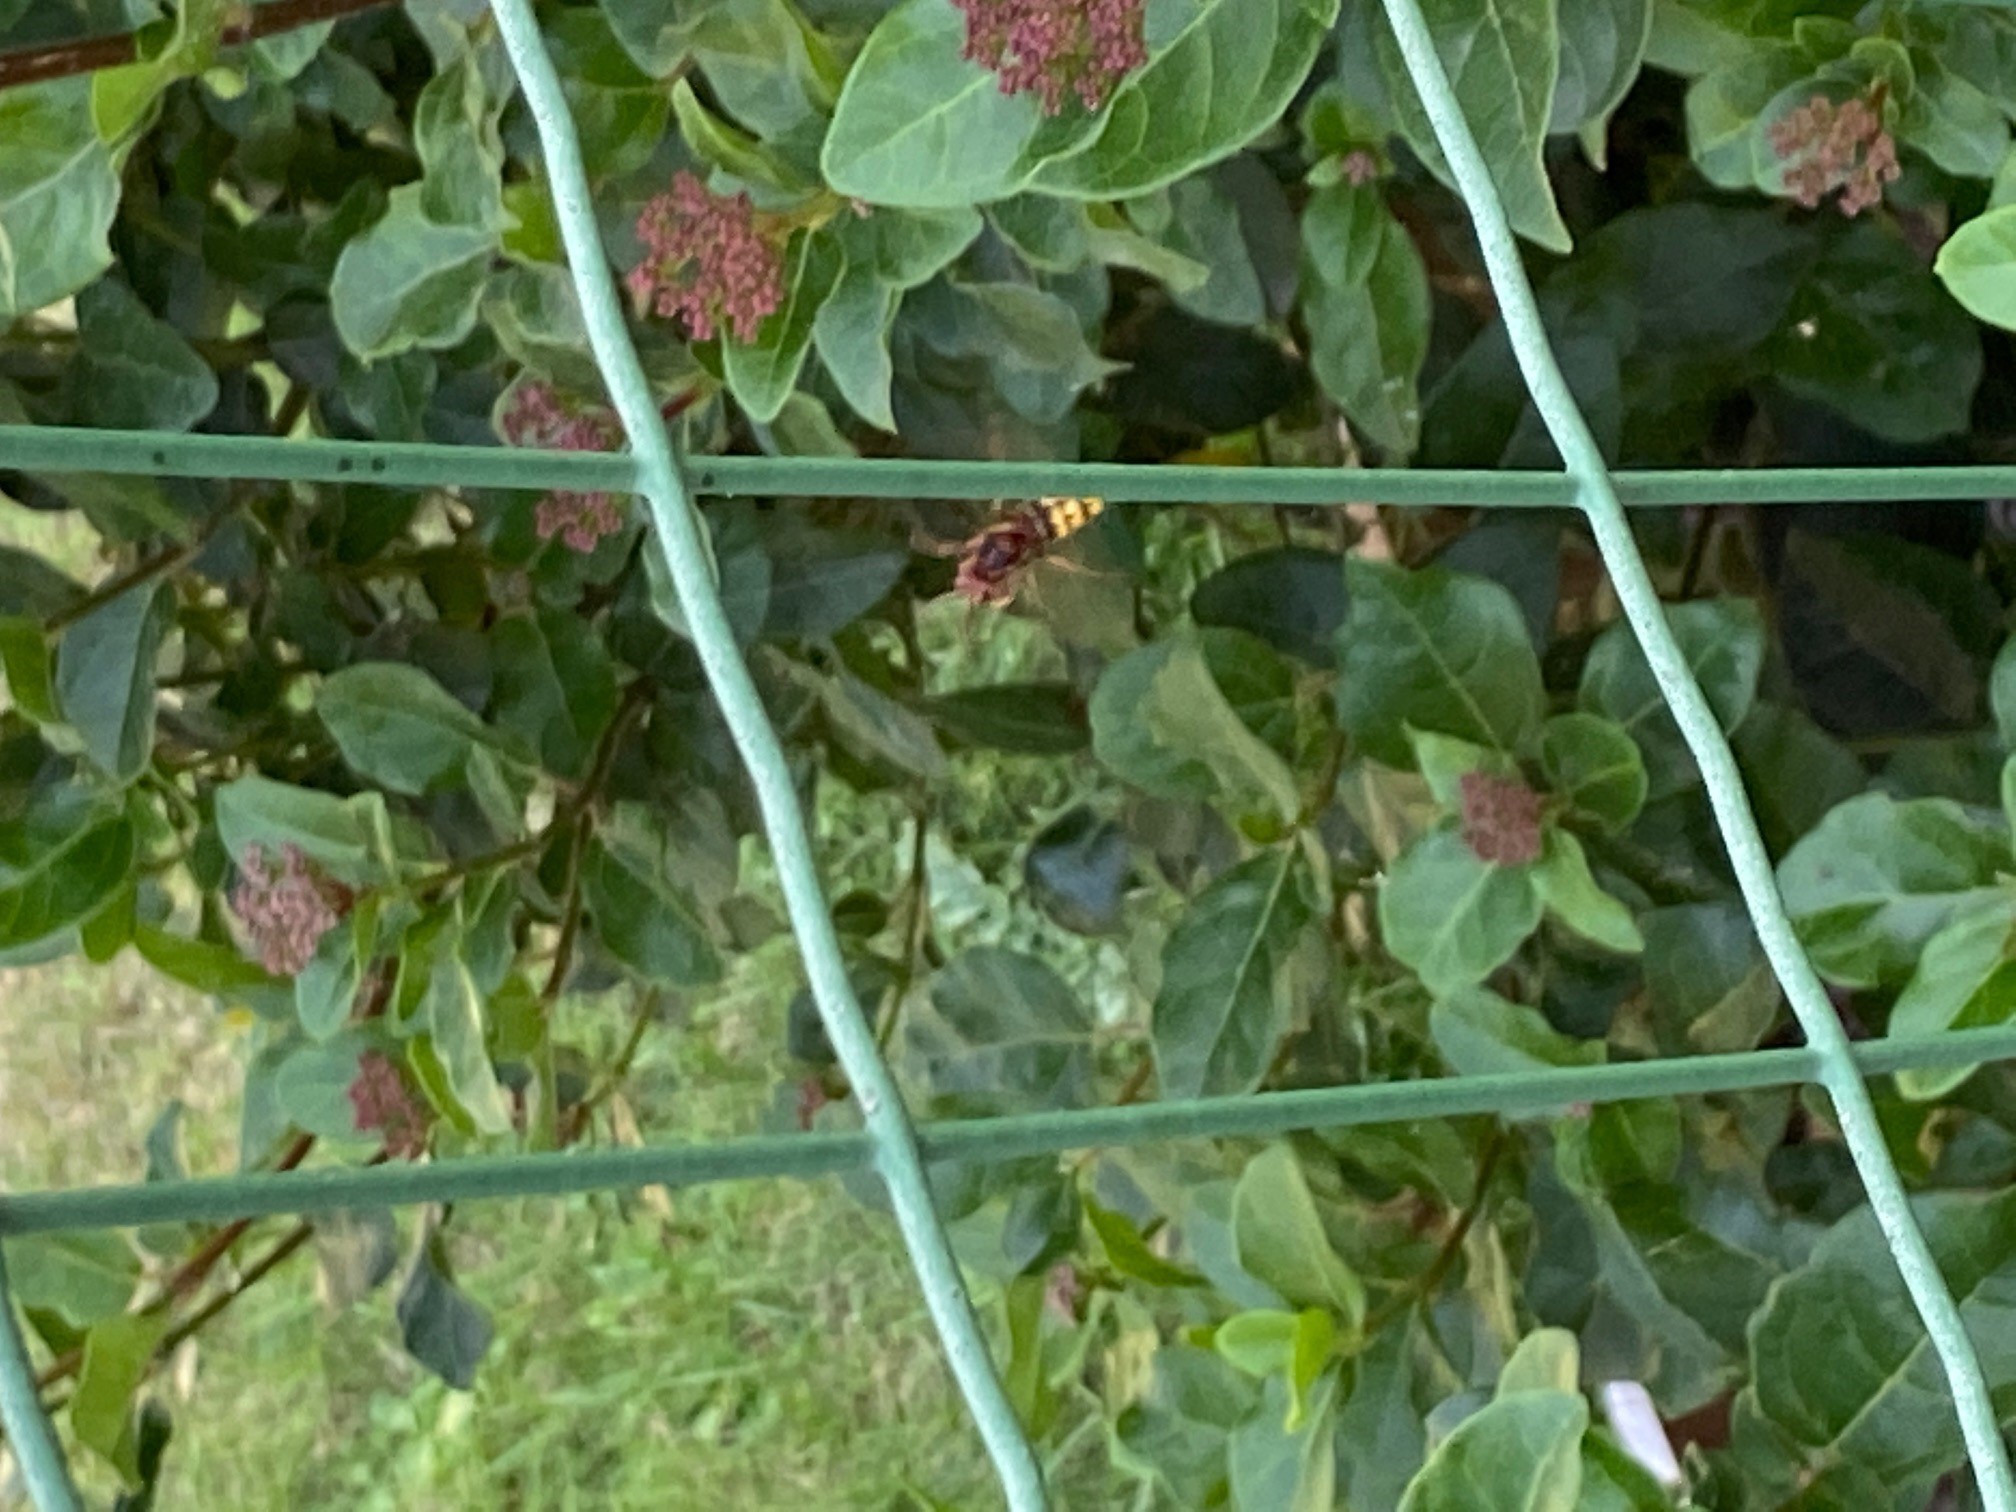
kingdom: Animalia
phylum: Arthropoda
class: Insecta
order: Hymenoptera
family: Vespidae
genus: Vespa
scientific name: Vespa crabro
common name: Hornet
